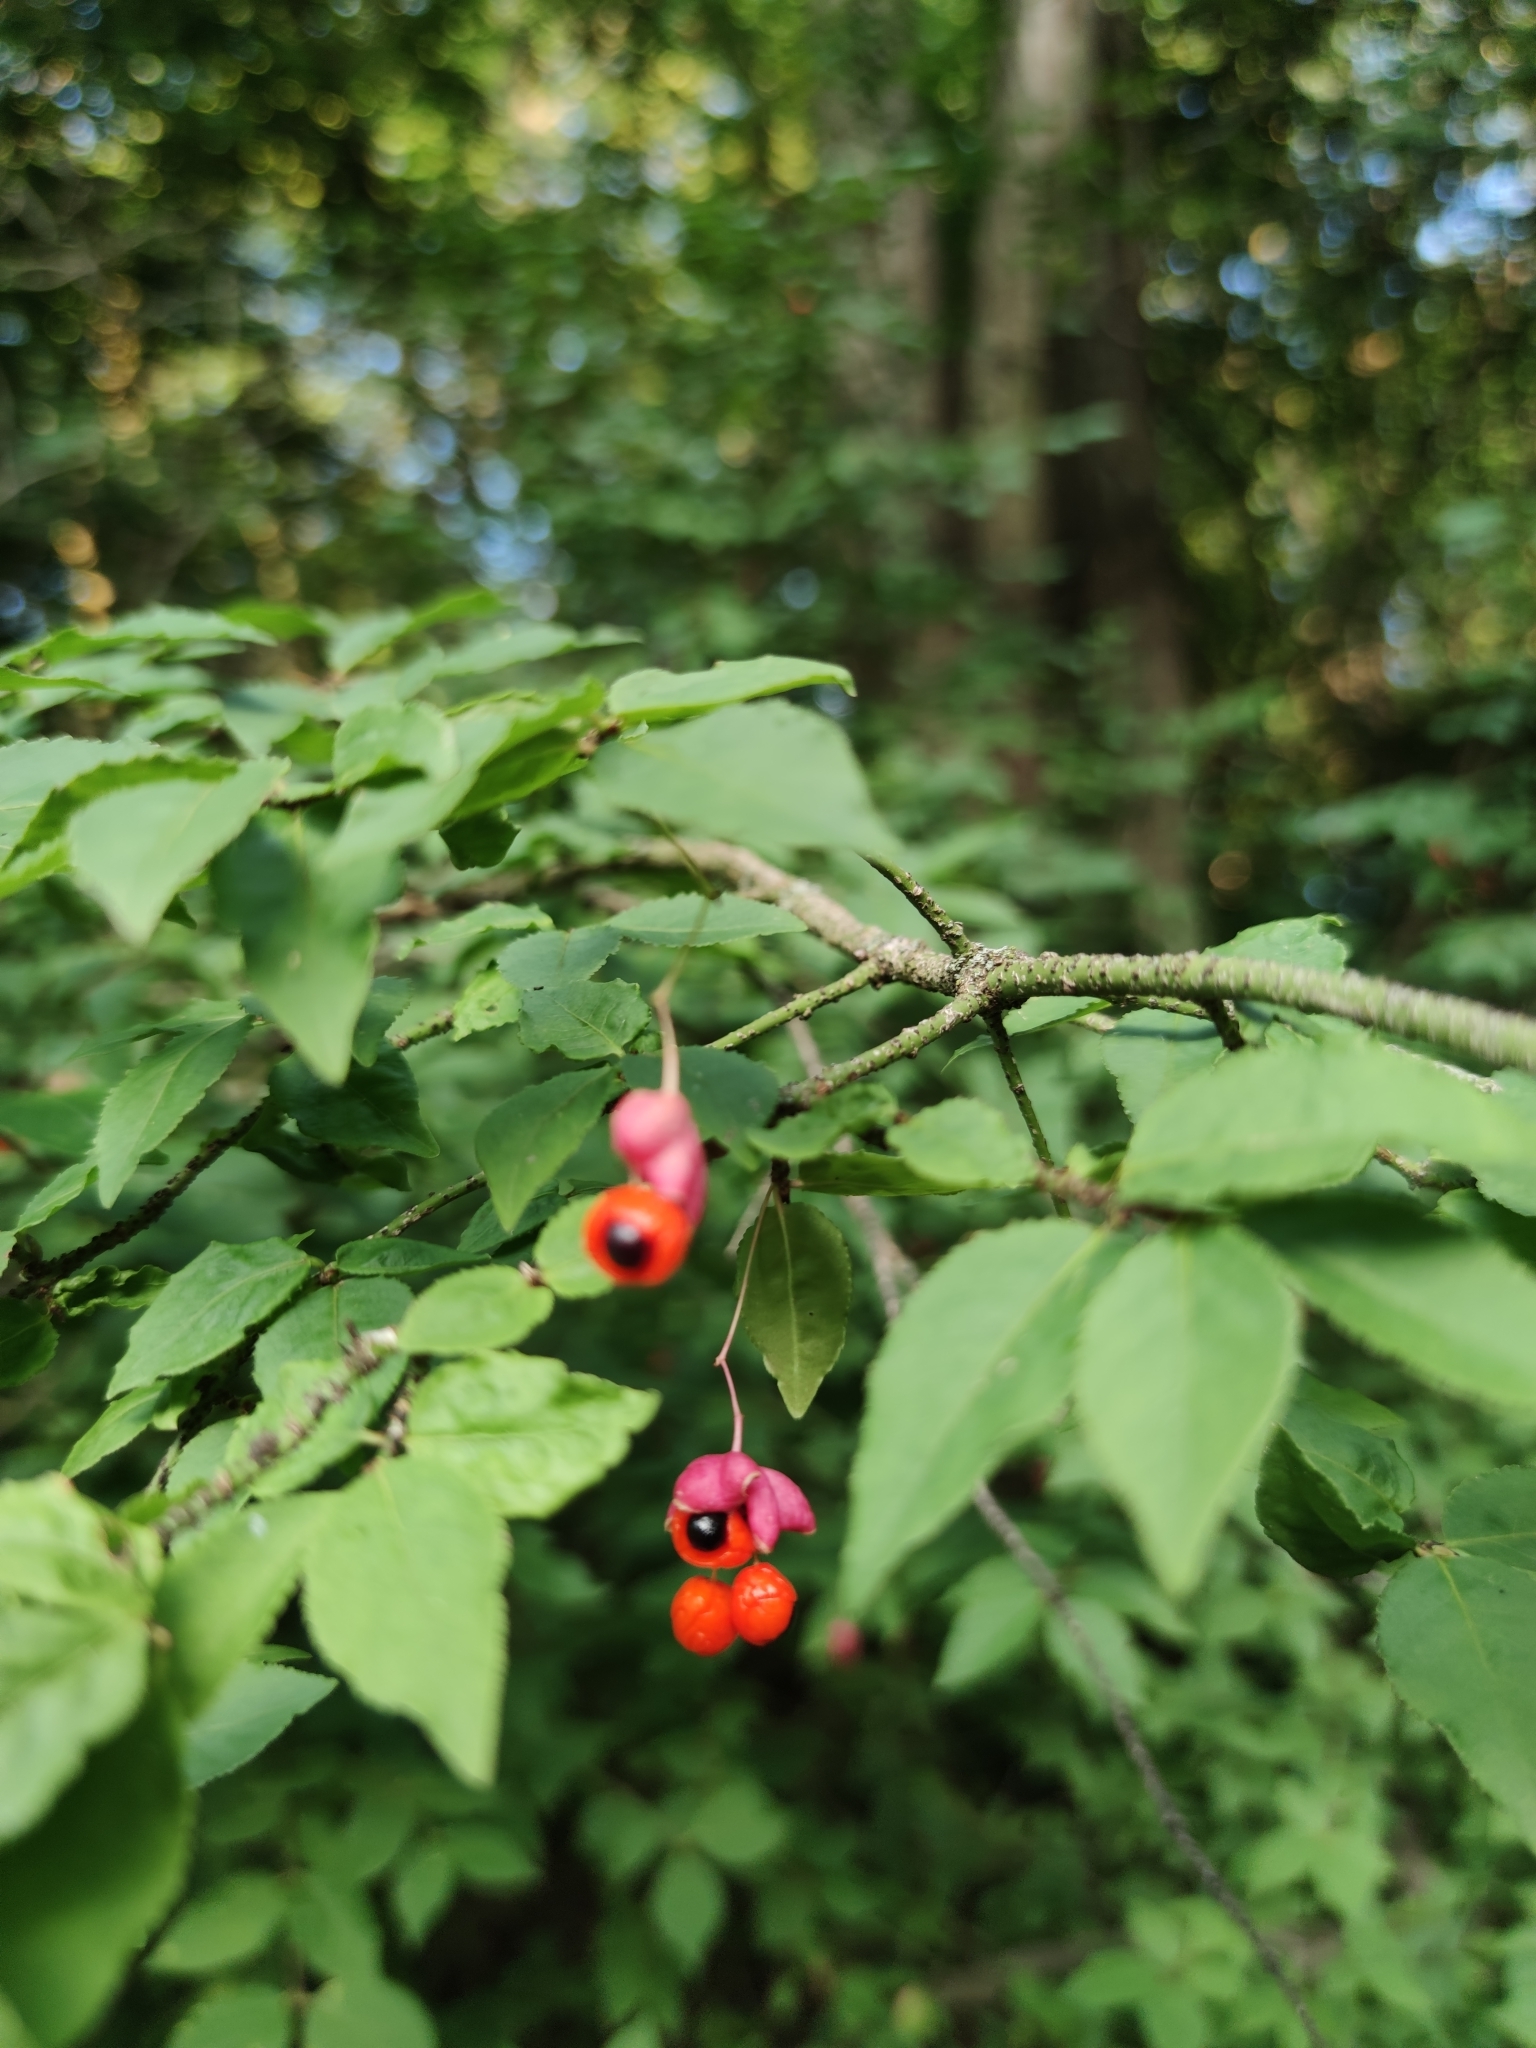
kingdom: Plantae
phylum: Tracheophyta
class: Magnoliopsida
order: Celastrales
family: Celastraceae
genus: Euonymus
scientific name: Euonymus verrucosus
